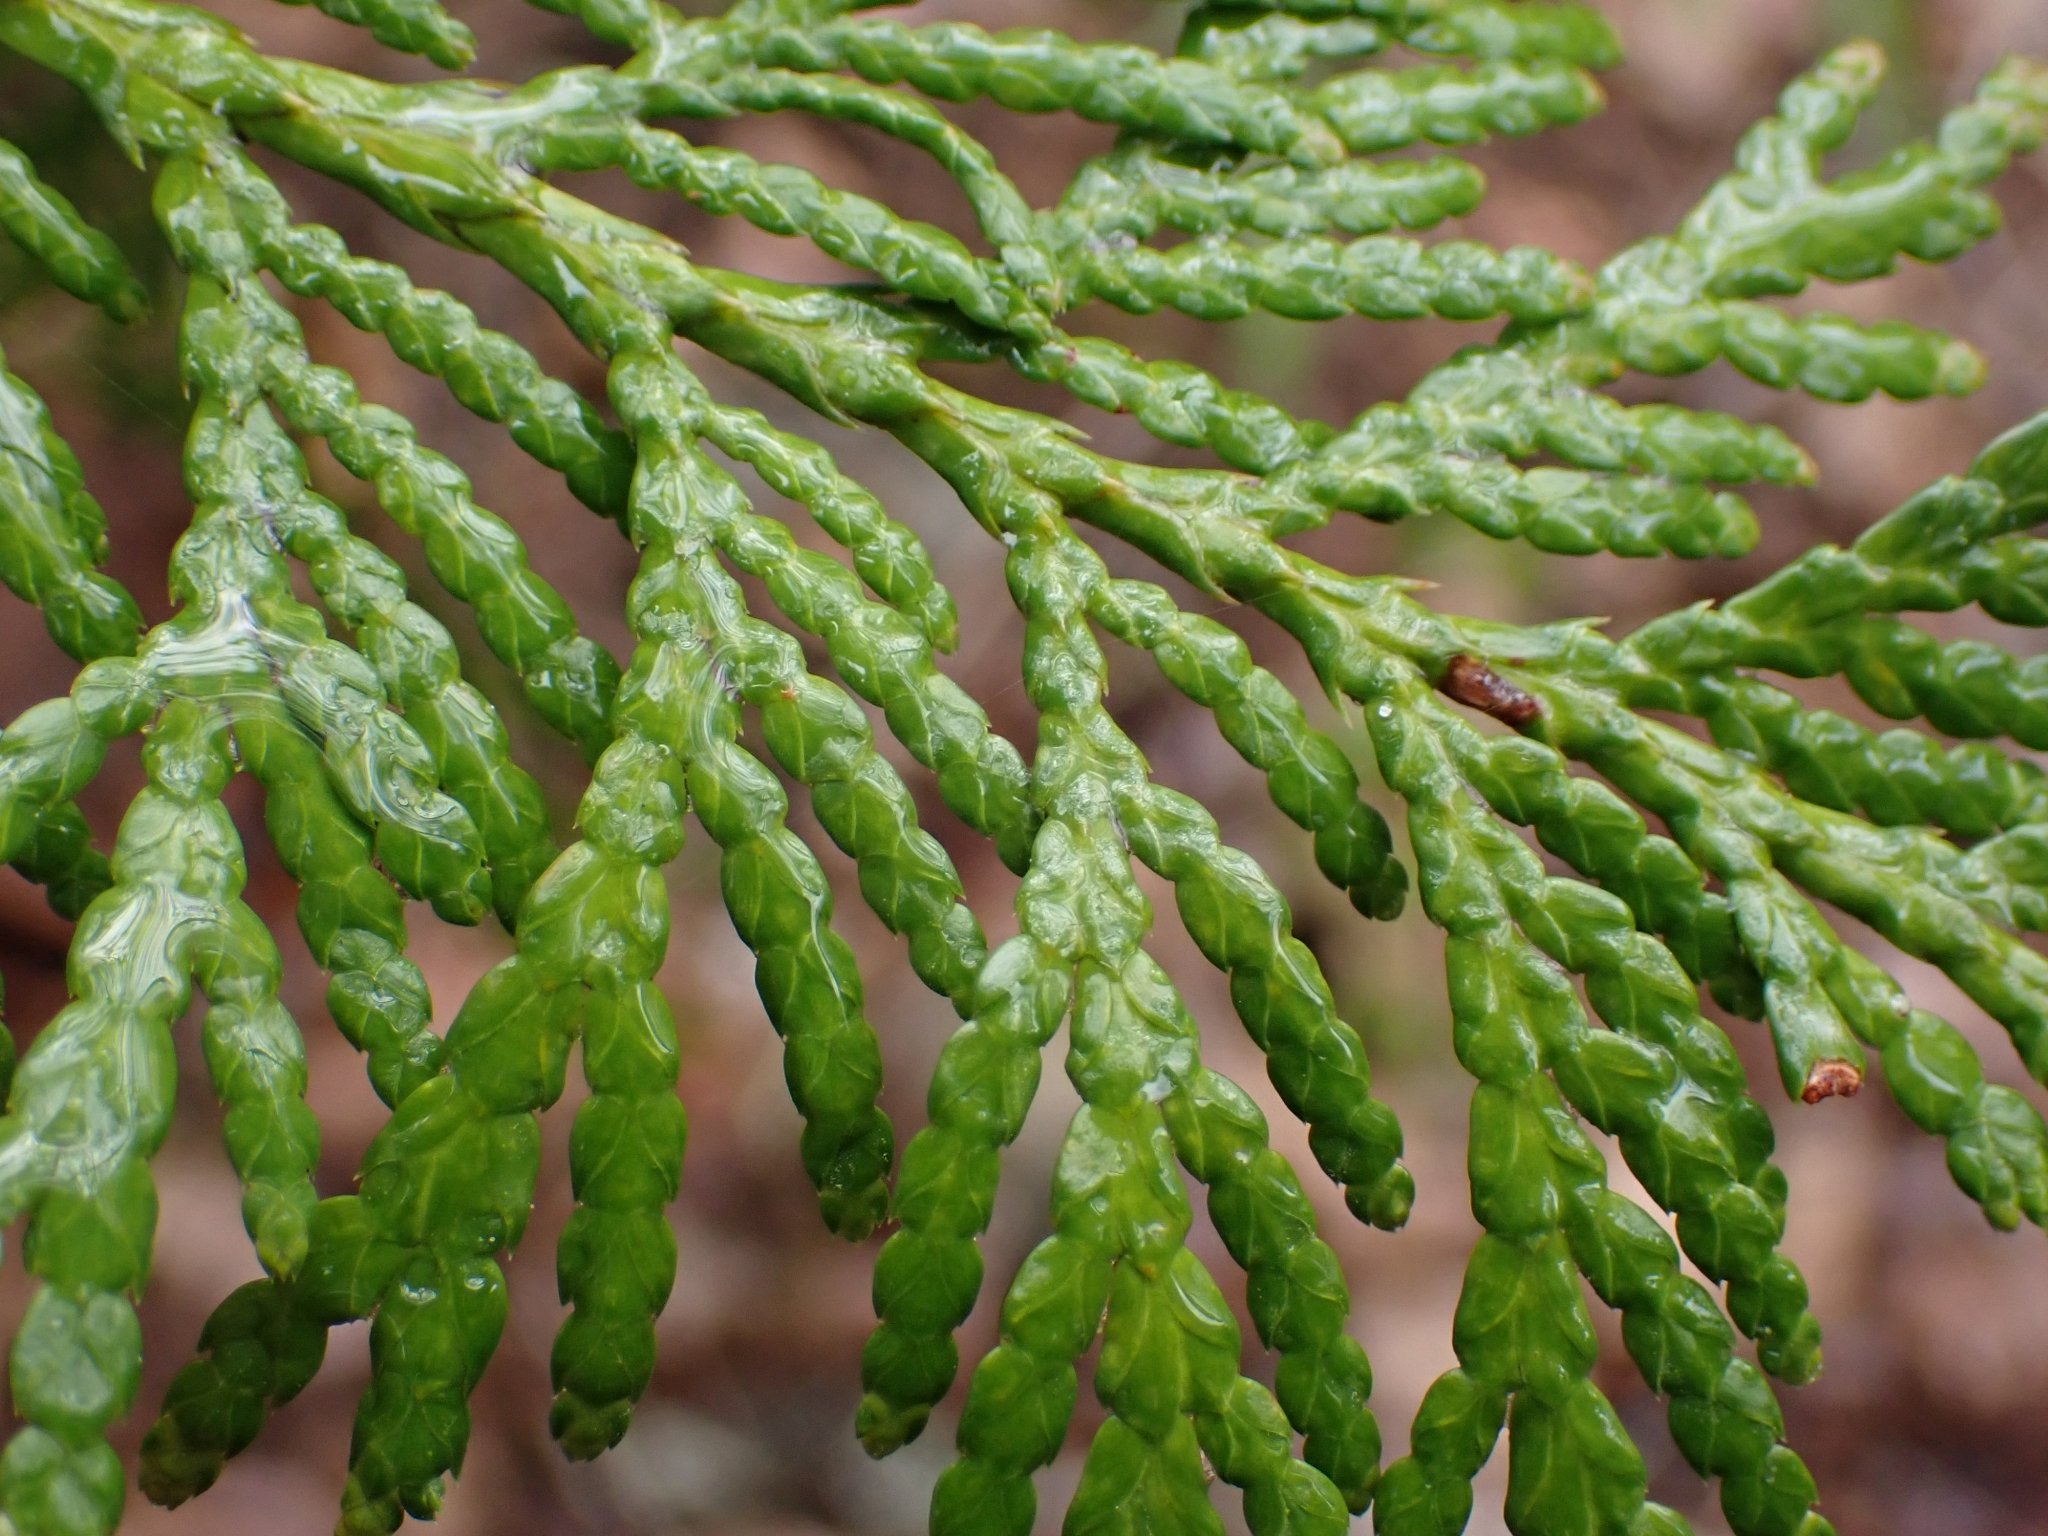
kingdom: Plantae
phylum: Tracheophyta
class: Pinopsida
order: Pinales
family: Cupressaceae
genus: Thuja
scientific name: Thuja plicata
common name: Western red-cedar
